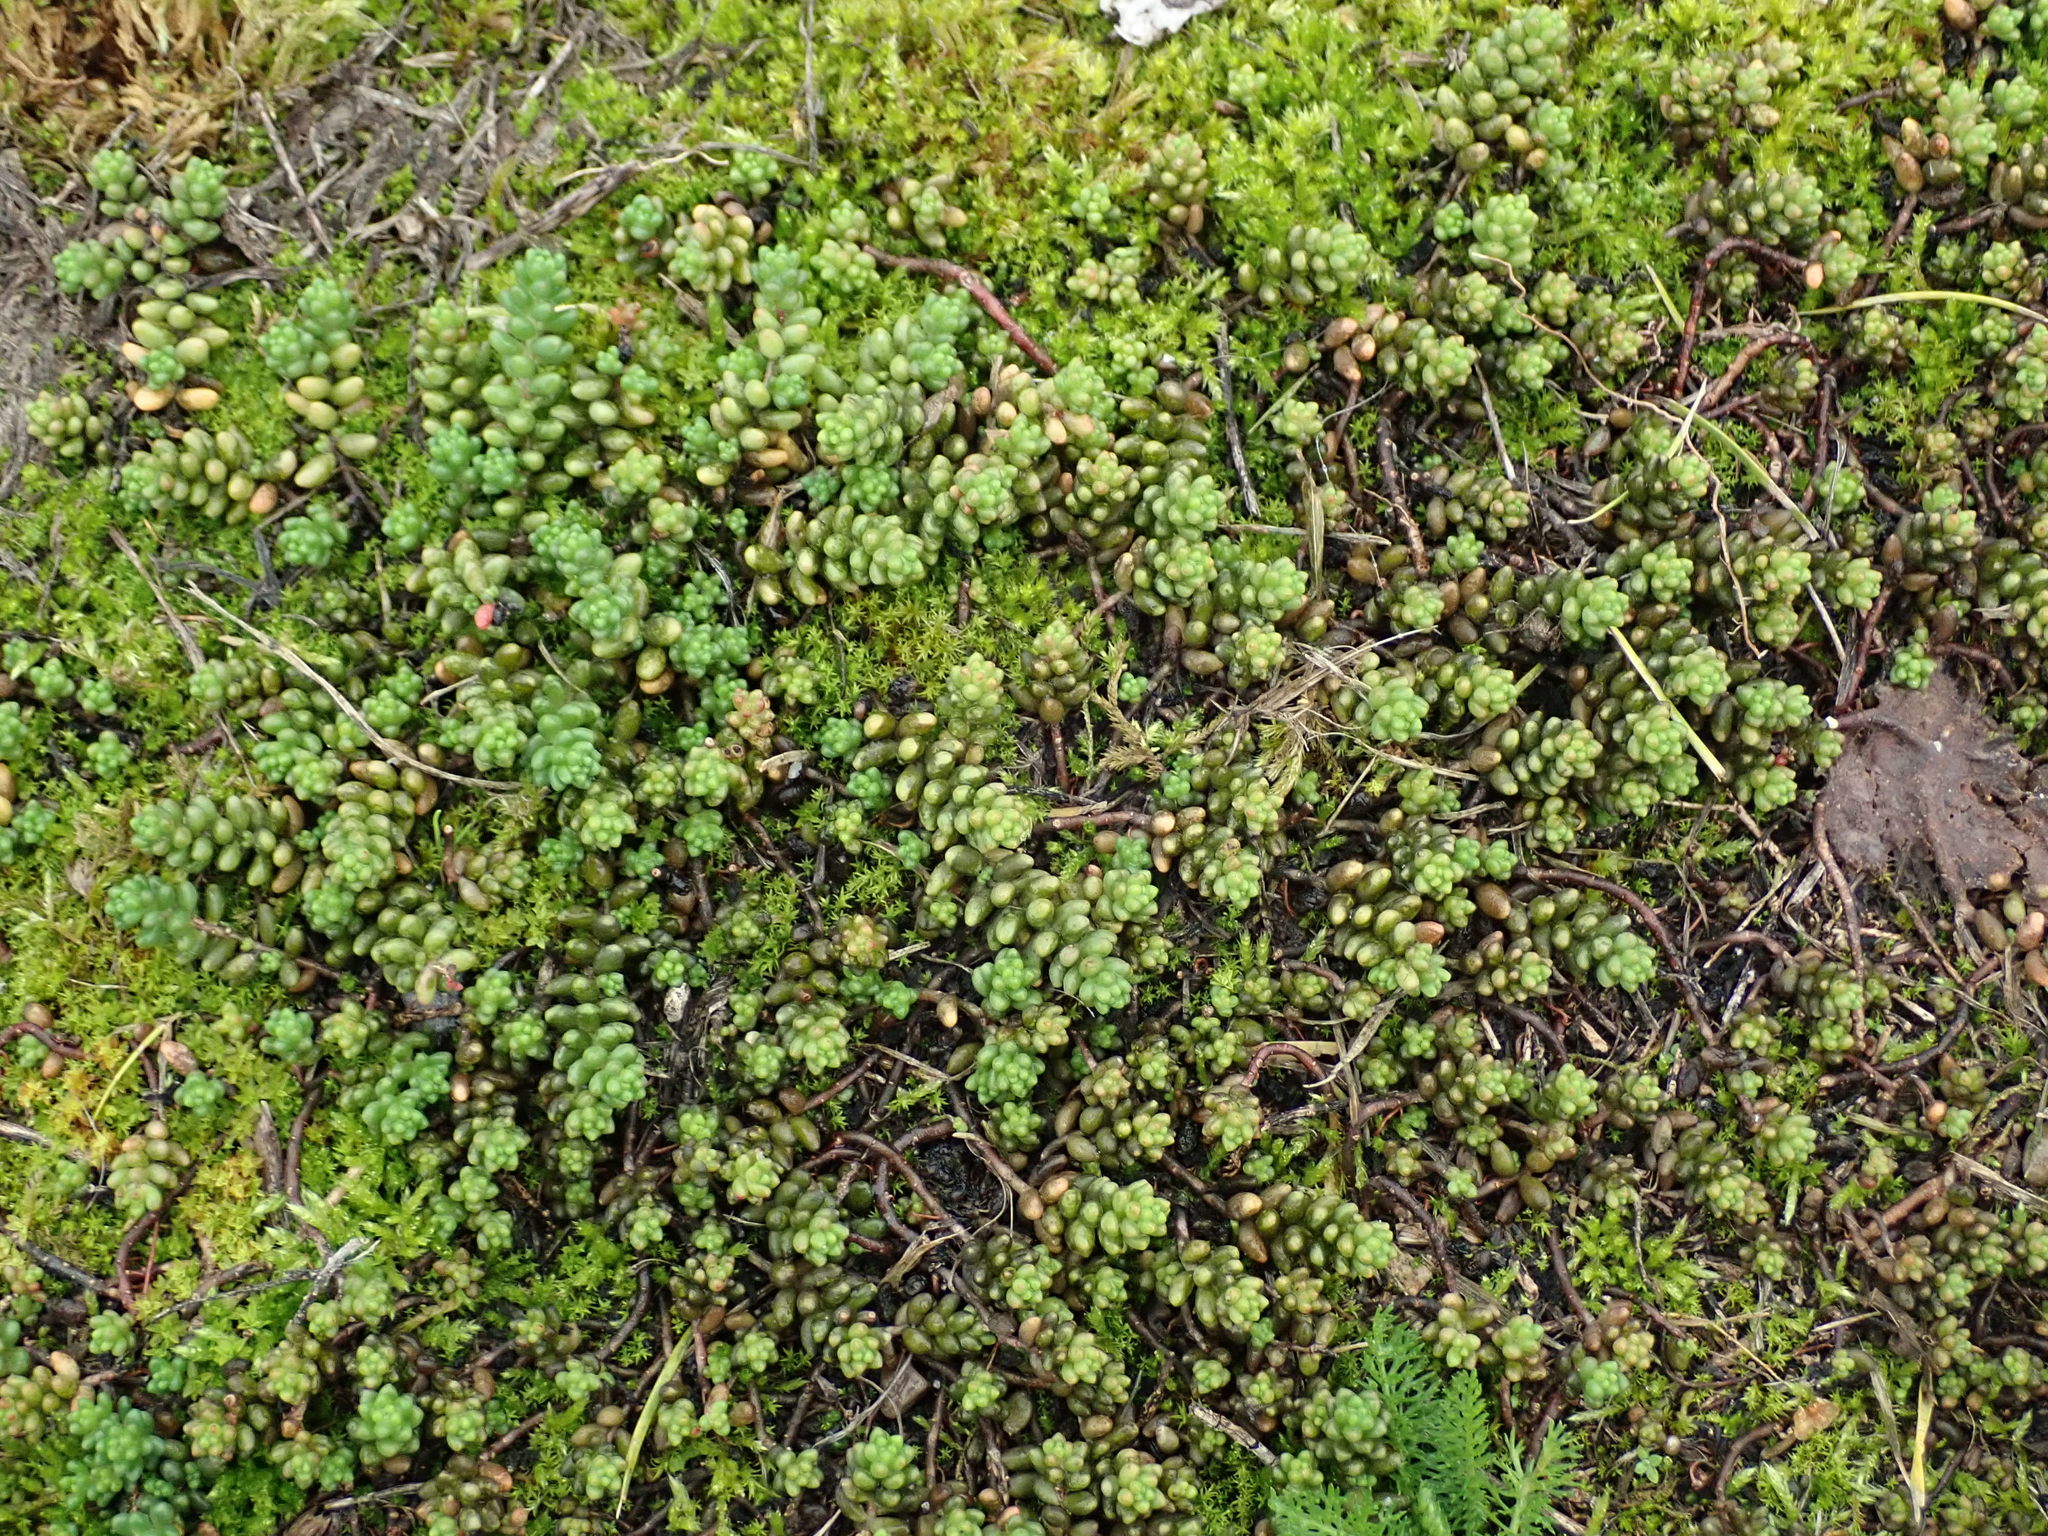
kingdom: Plantae
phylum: Tracheophyta
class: Magnoliopsida
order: Saxifragales
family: Crassulaceae
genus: Sedum
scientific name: Sedum album
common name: White stonecrop
